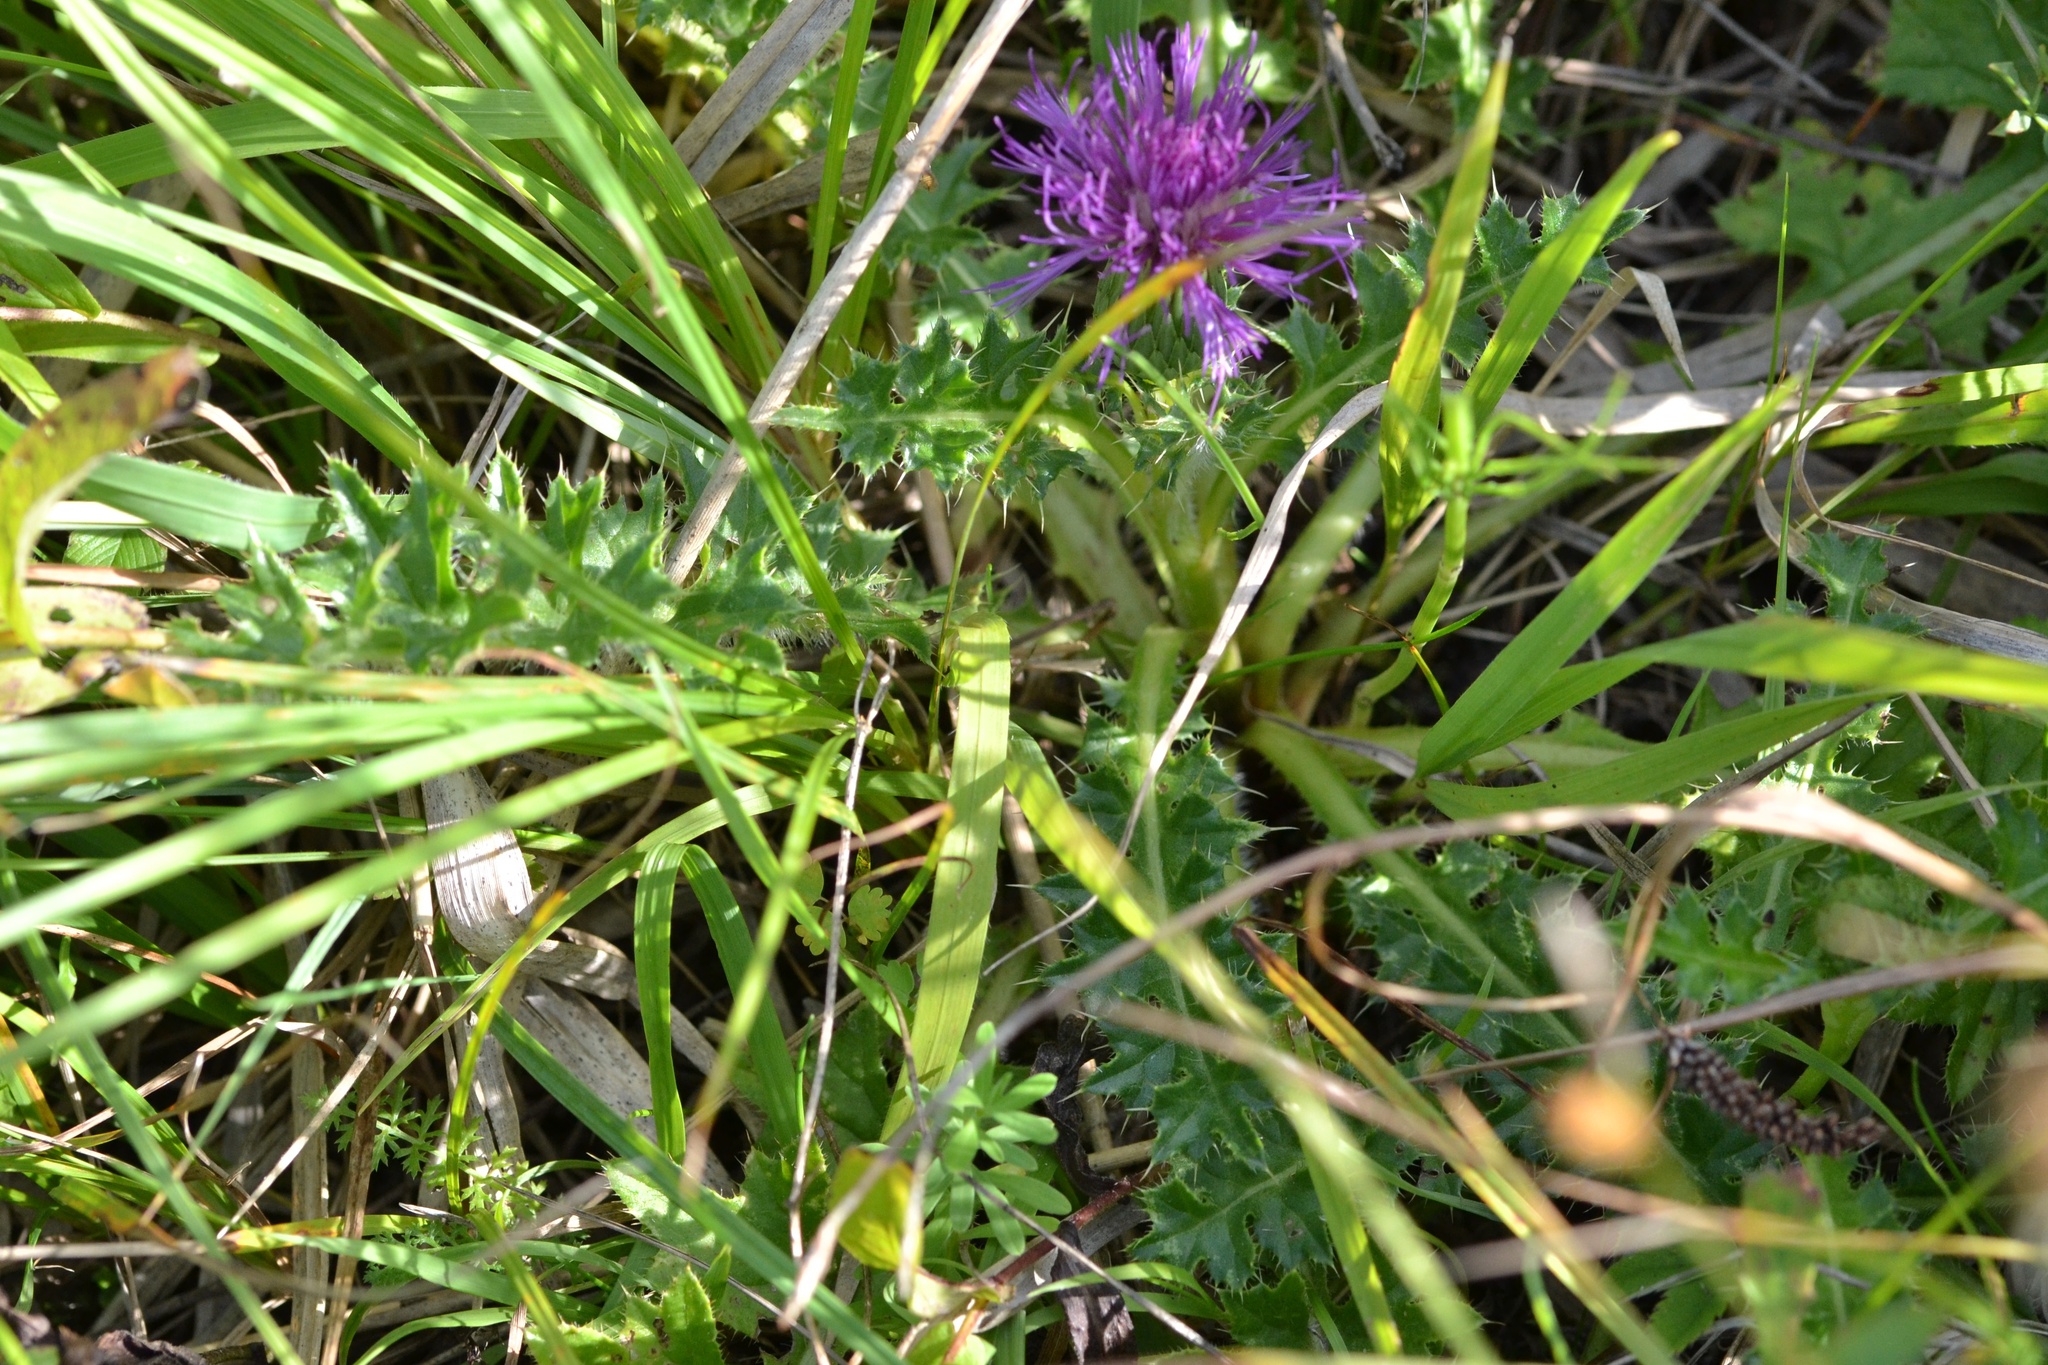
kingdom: Plantae
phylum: Tracheophyta
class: Magnoliopsida
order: Asterales
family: Asteraceae
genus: Cirsium
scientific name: Cirsium acaulon
